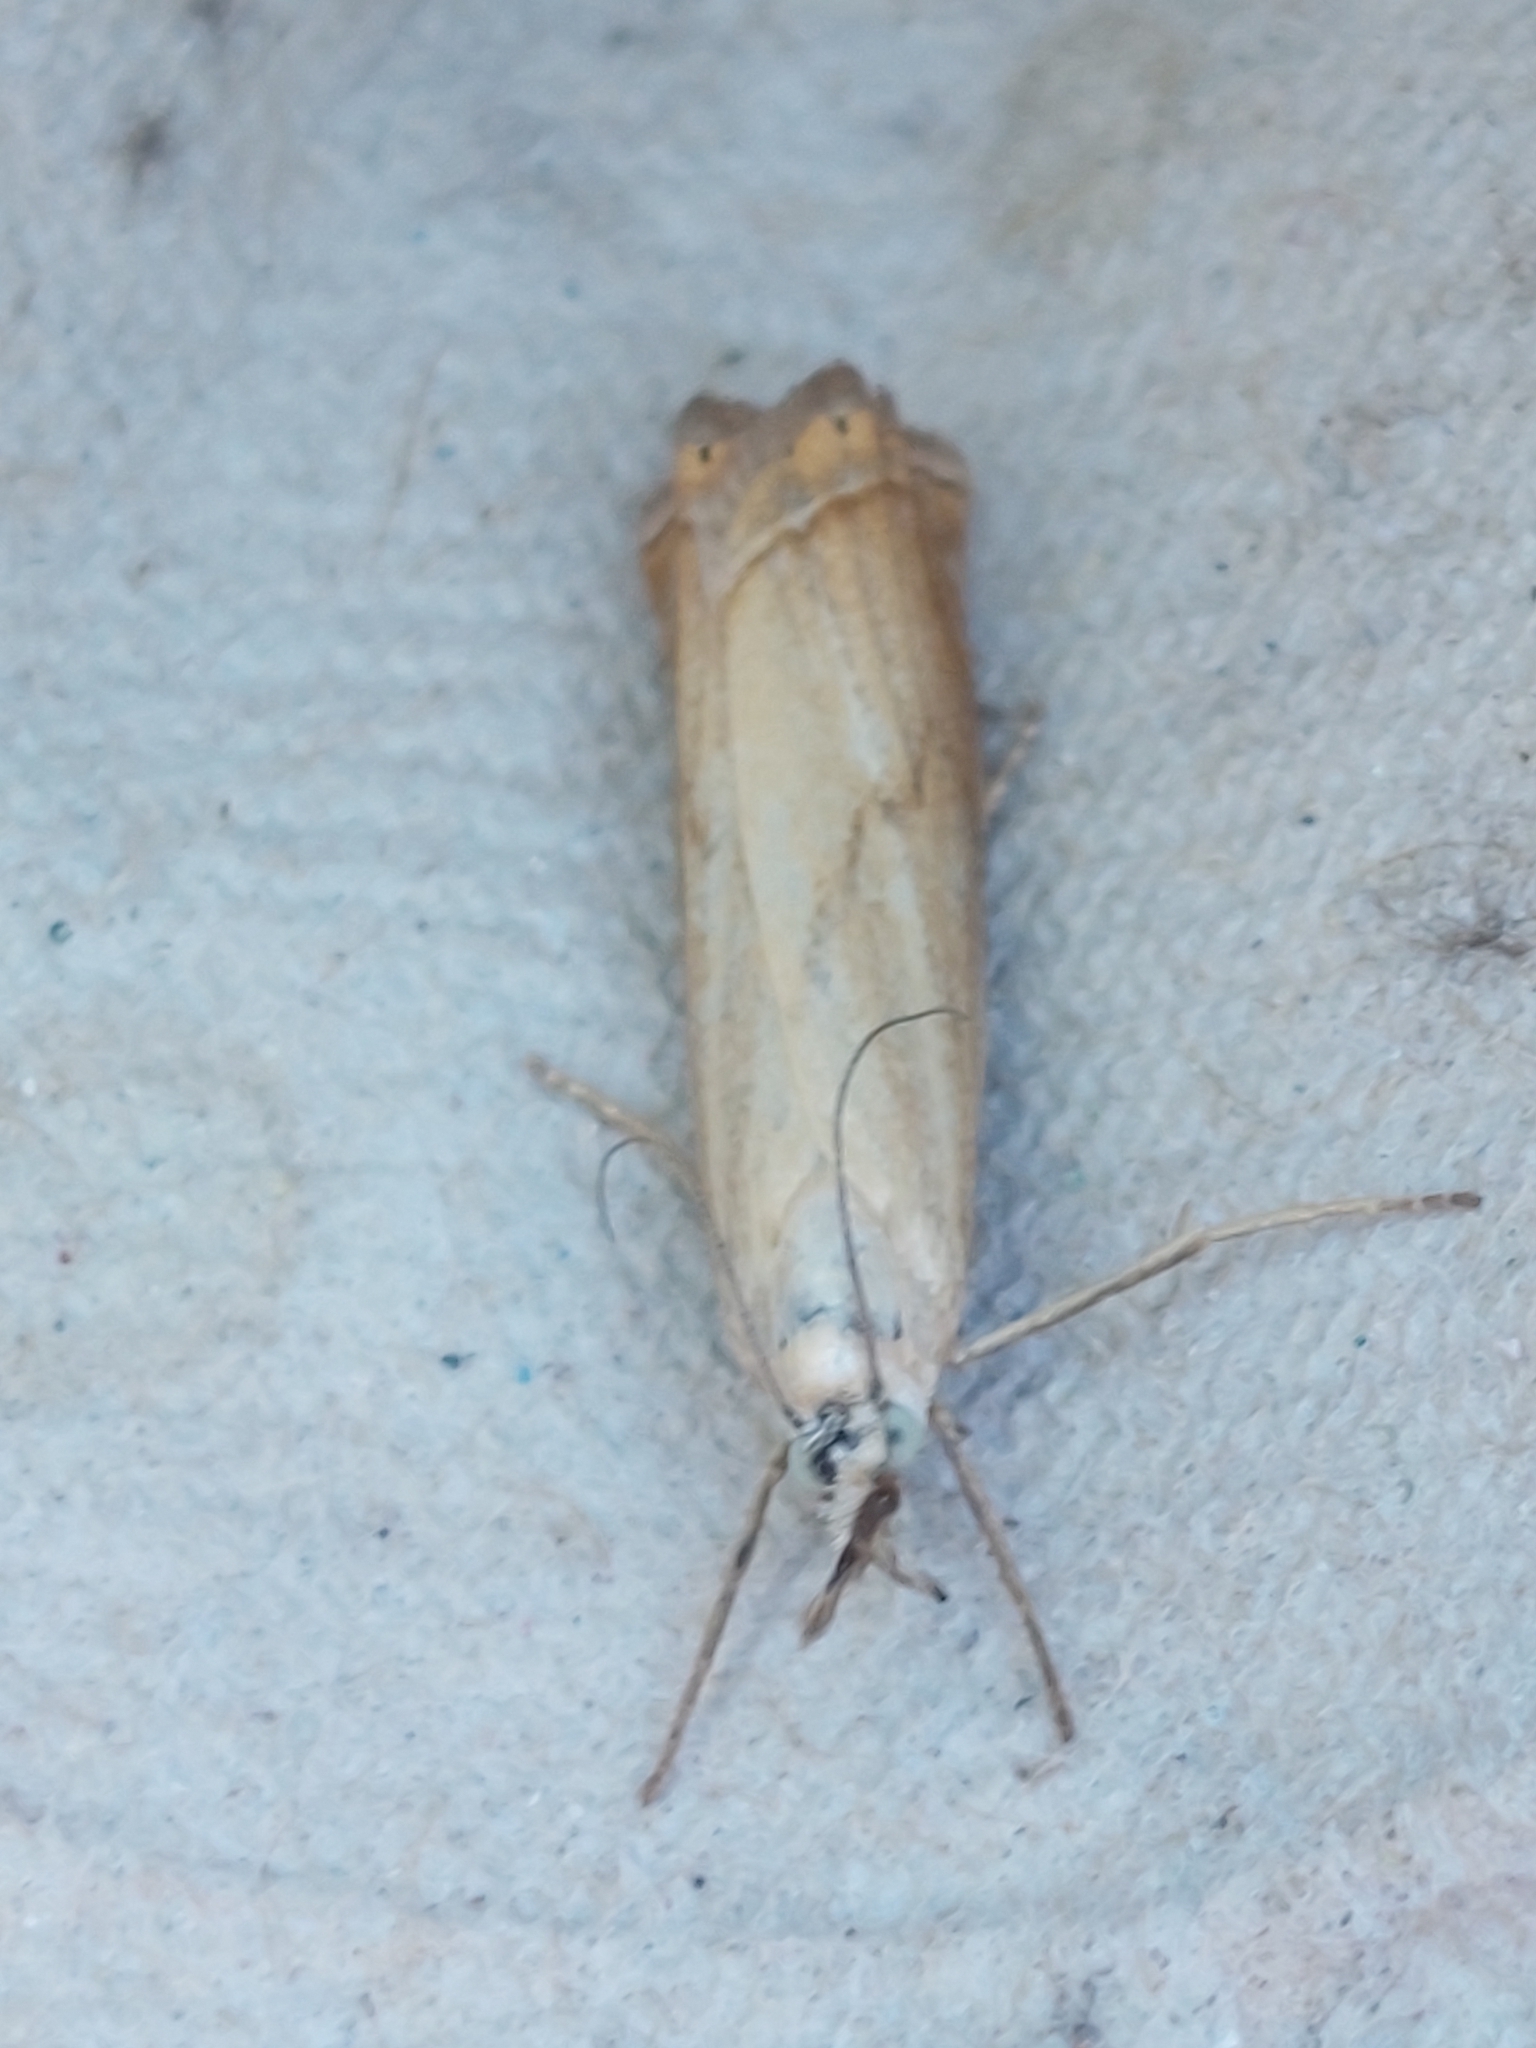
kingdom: Animalia
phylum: Arthropoda
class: Insecta
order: Lepidoptera
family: Crambidae
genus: Chrysoteuchia
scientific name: Chrysoteuchia culmella
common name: Garden grass-veneer
